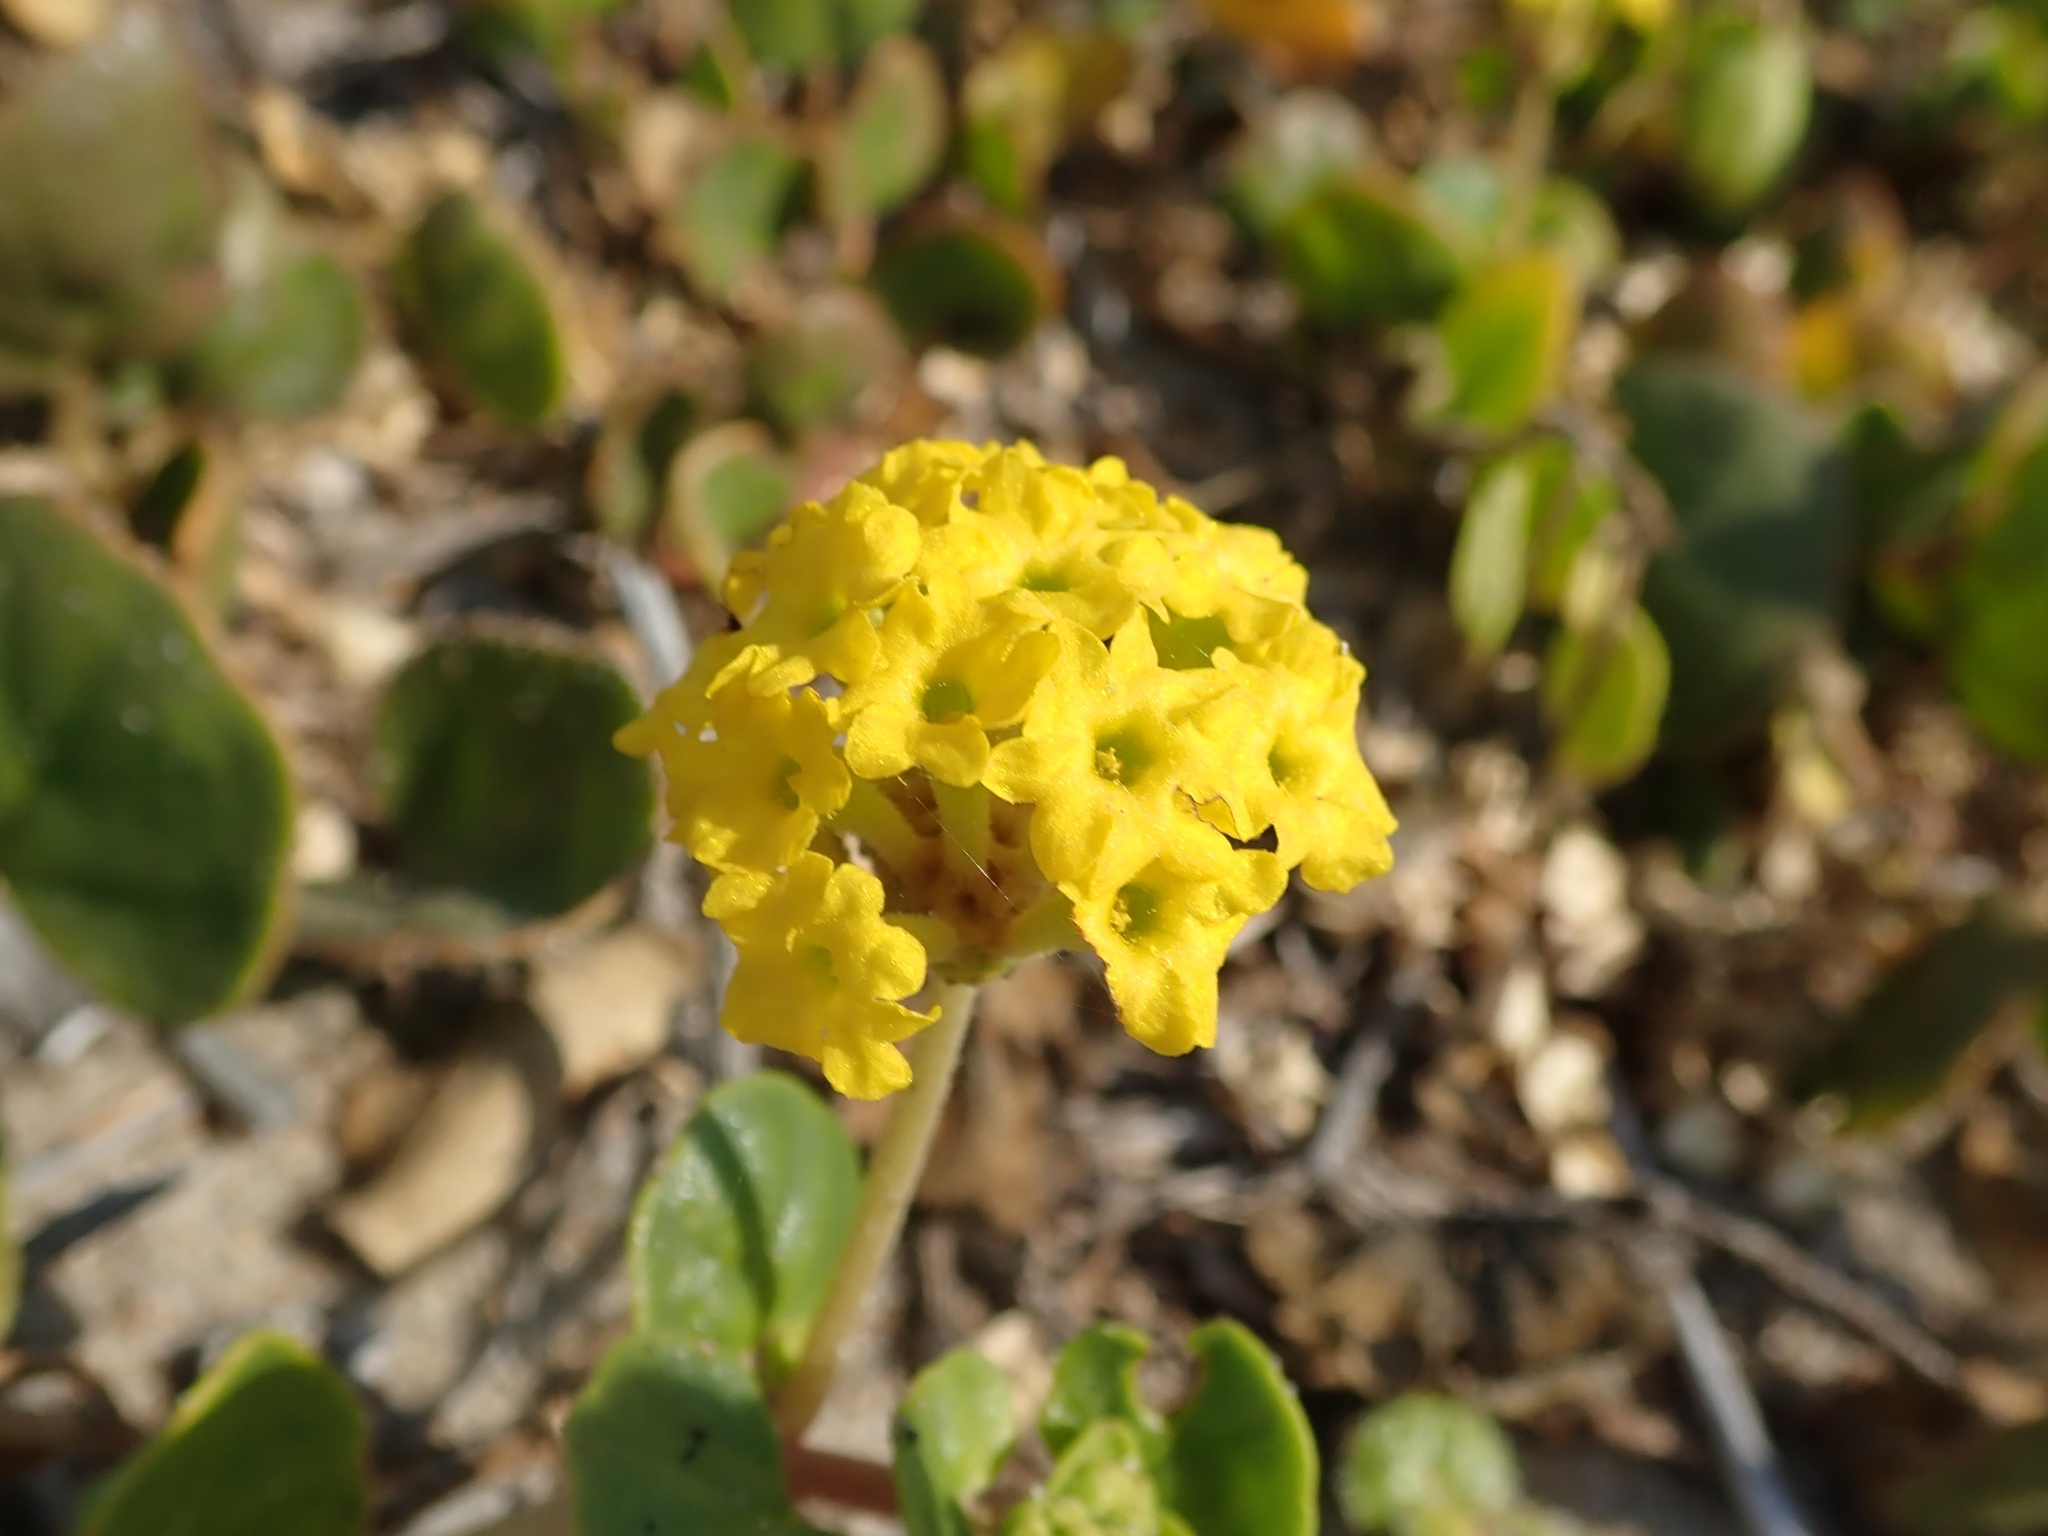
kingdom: Plantae
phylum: Tracheophyta
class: Magnoliopsida
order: Caryophyllales
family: Nyctaginaceae
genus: Abronia
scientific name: Abronia latifolia
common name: Yellow sand-verbena
